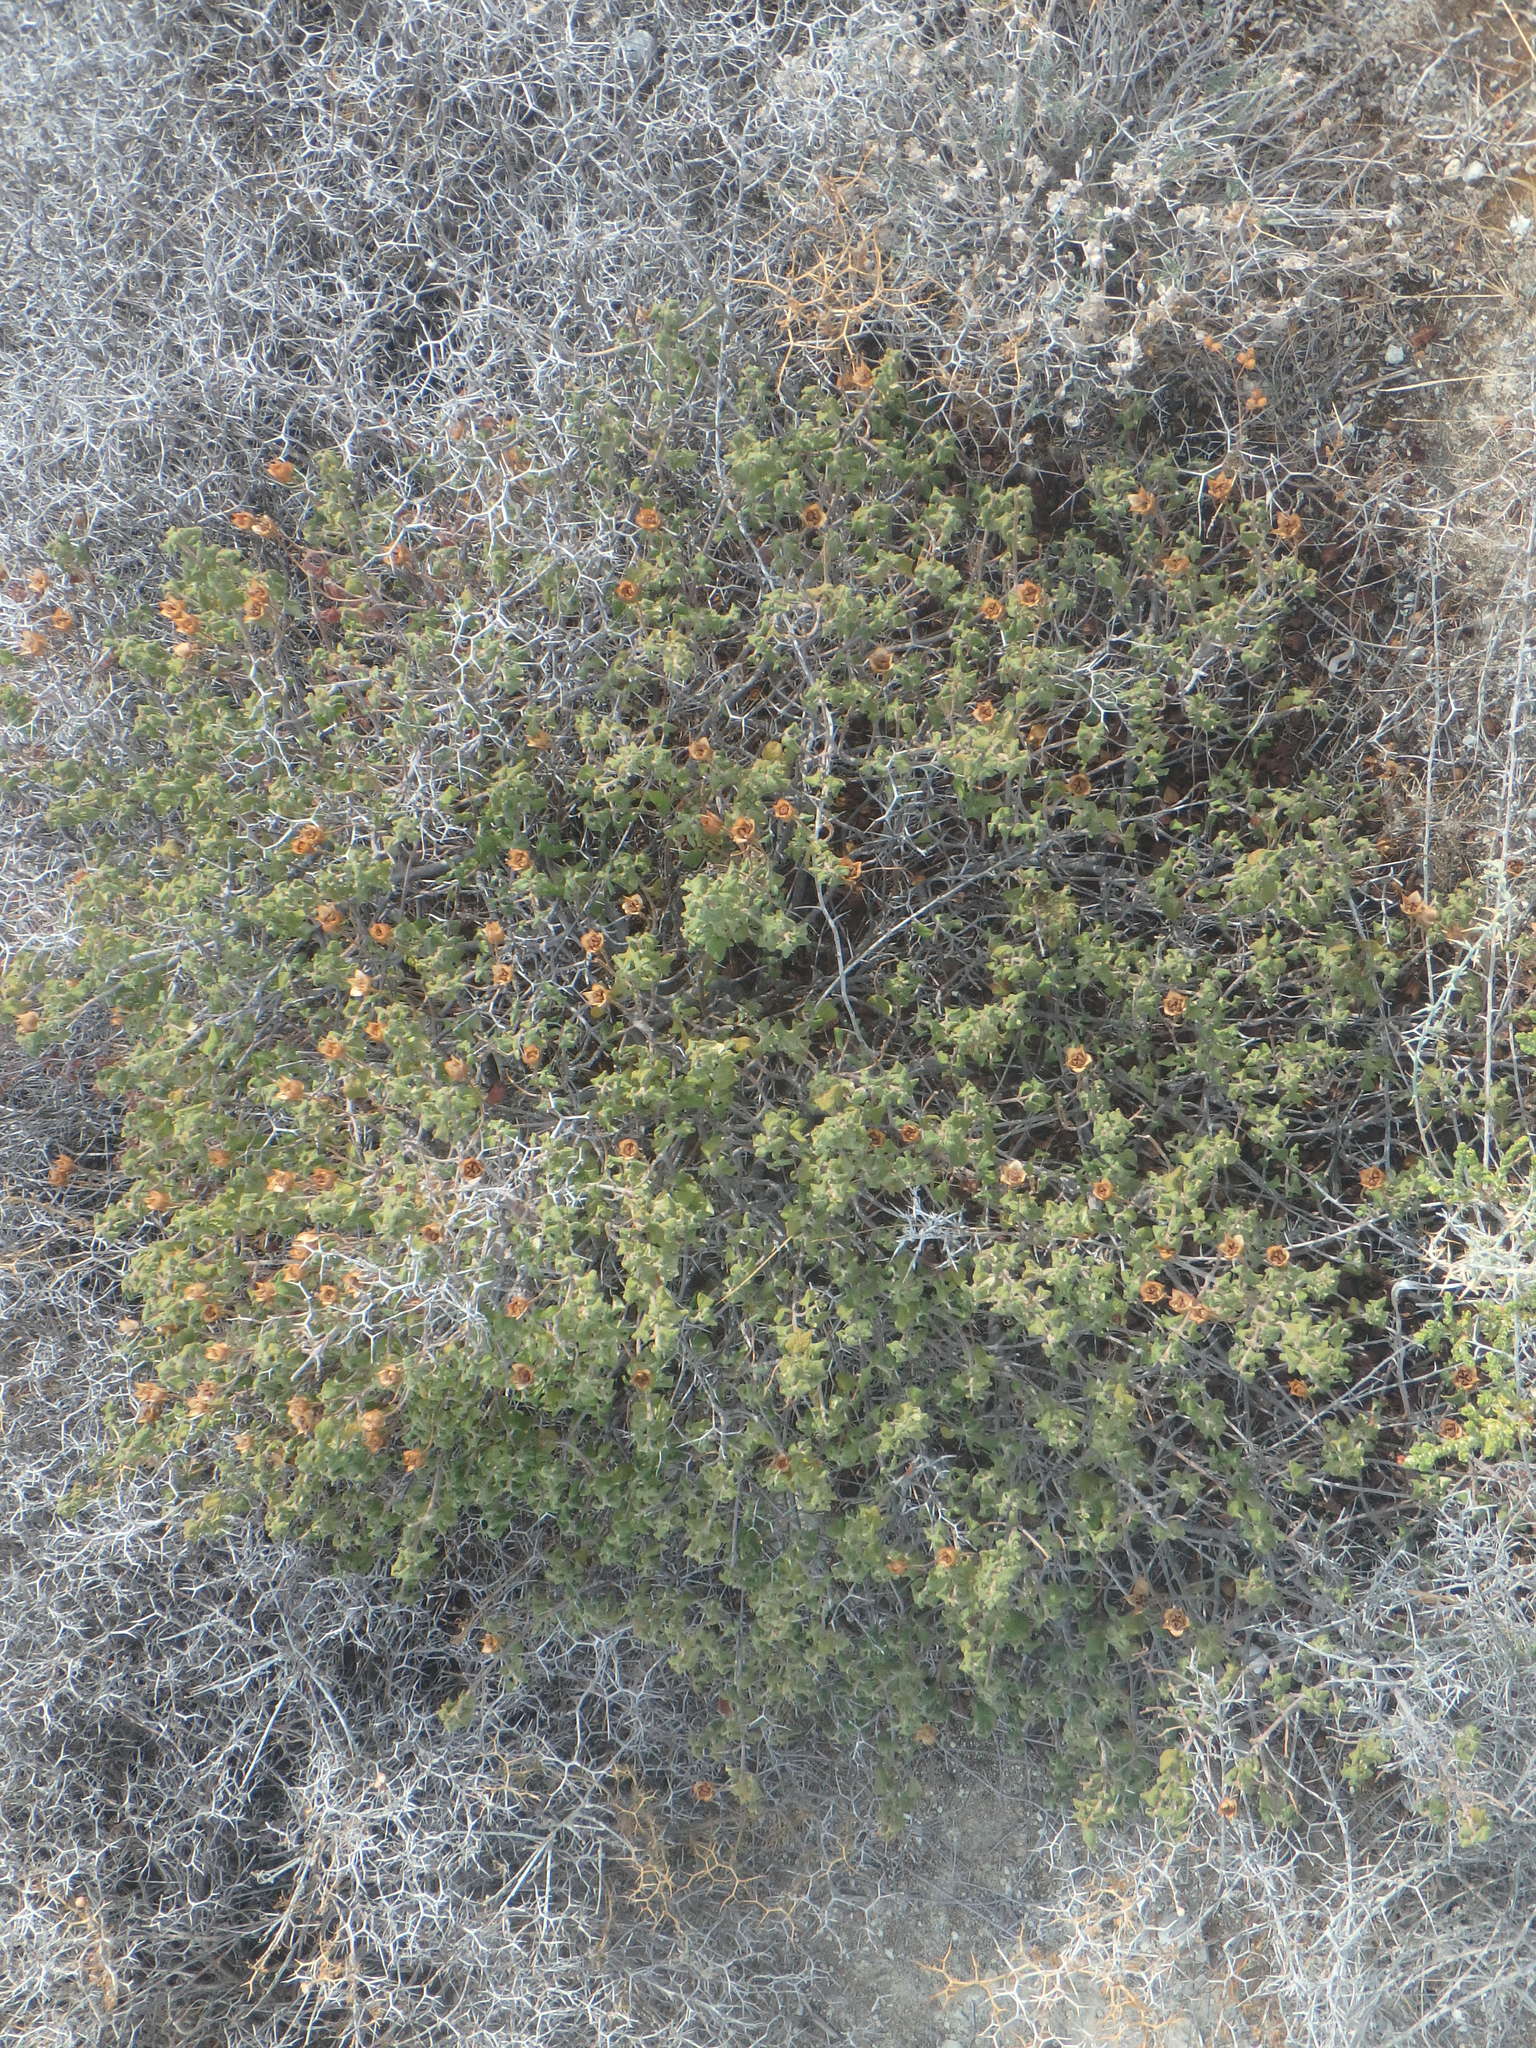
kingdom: Plantae
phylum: Tracheophyta
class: Magnoliopsida
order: Malvales
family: Cistaceae
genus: Cistus
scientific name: Cistus salviifolius
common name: Salvia cistus
